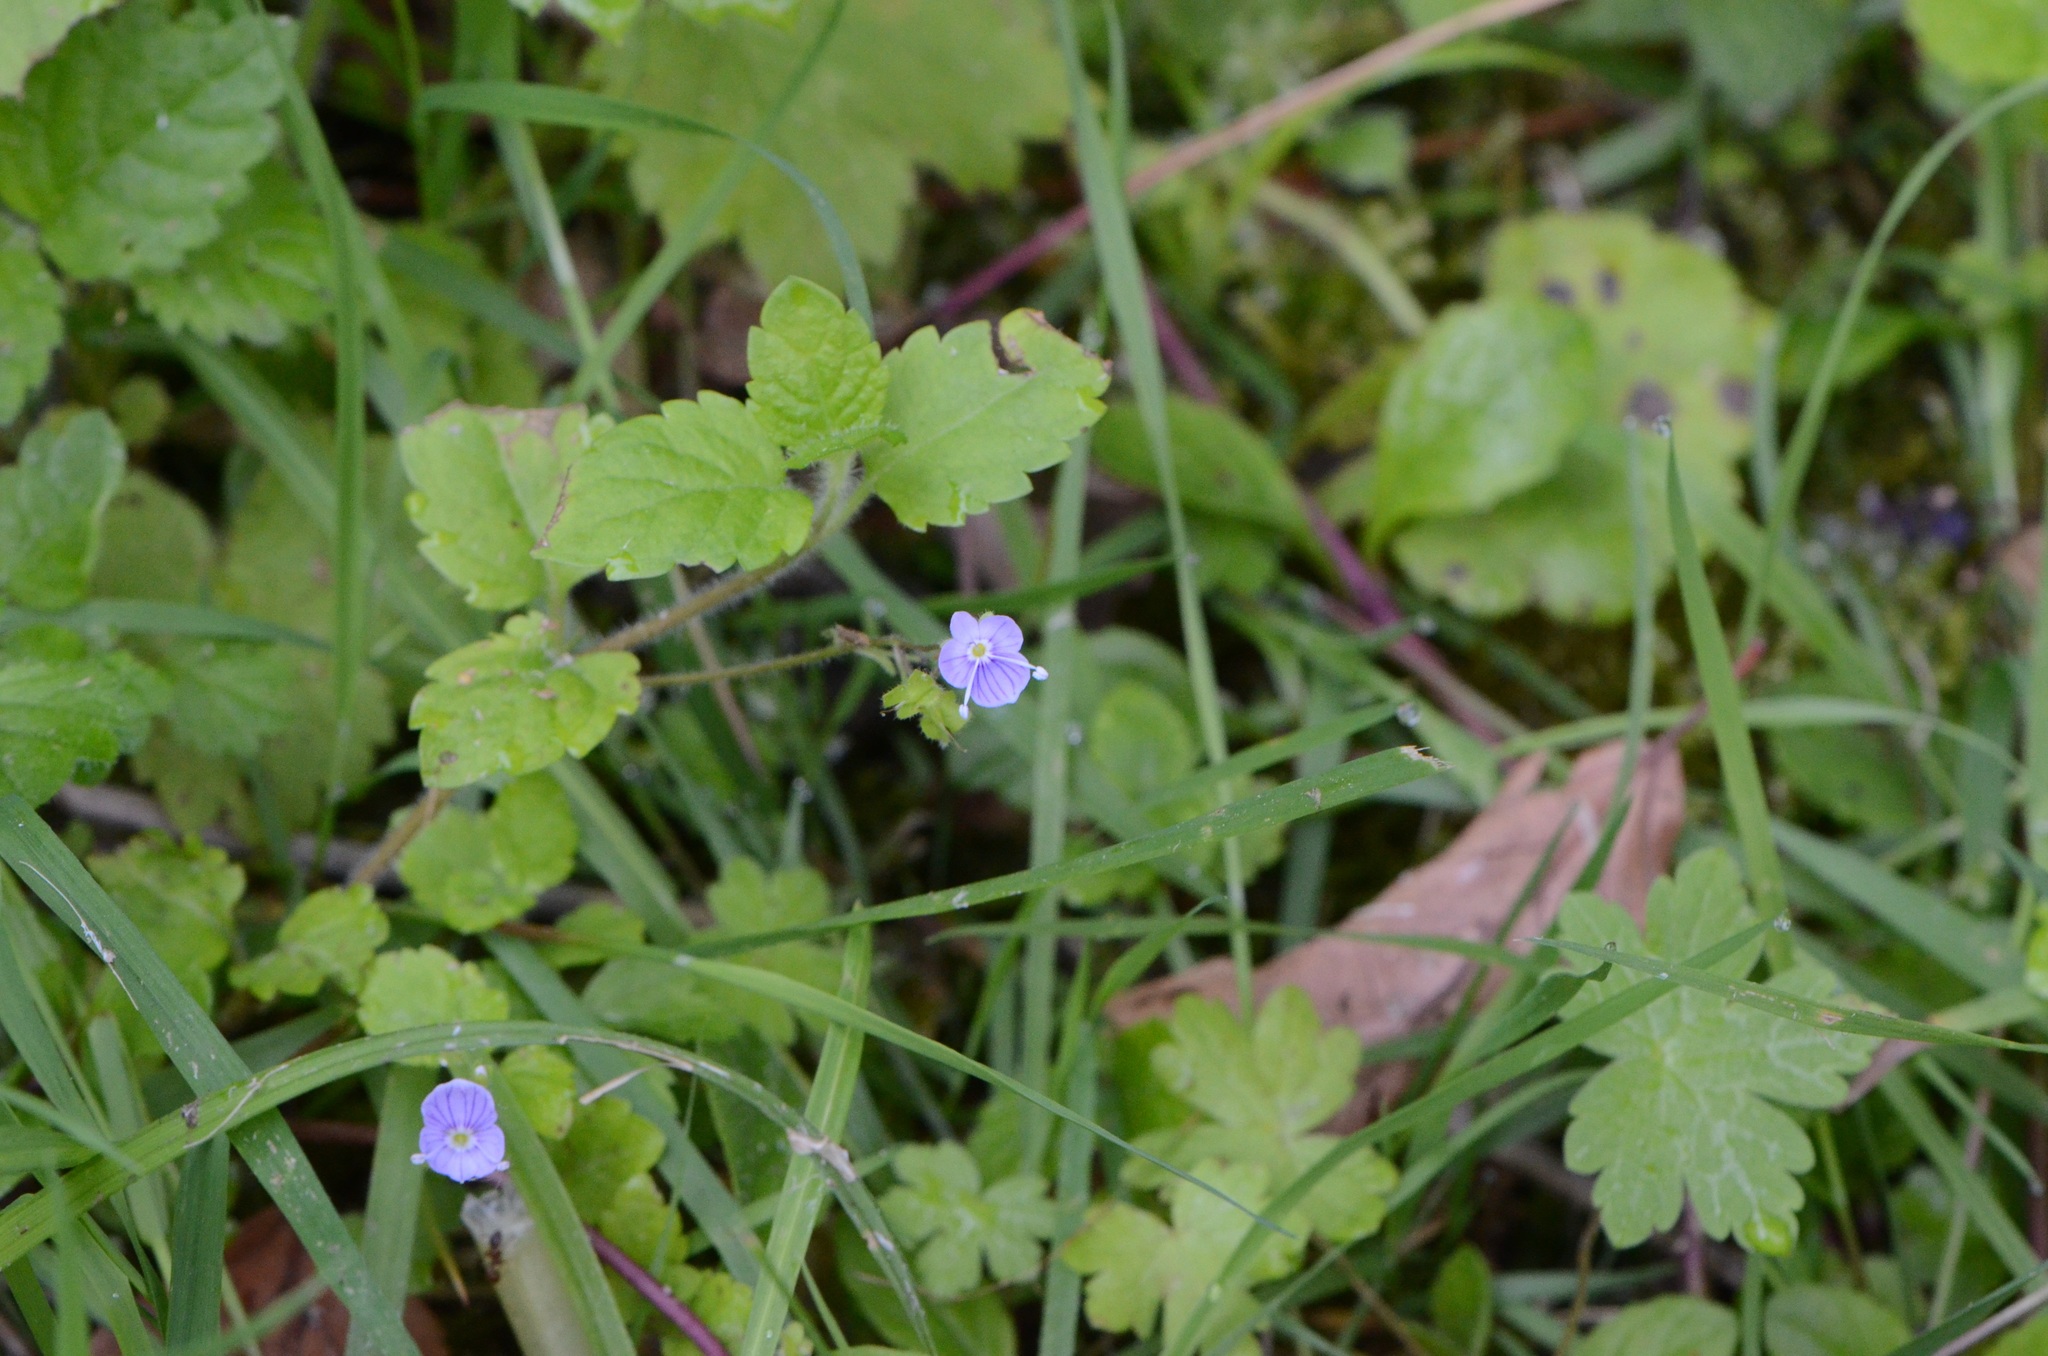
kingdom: Plantae
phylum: Tracheophyta
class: Magnoliopsida
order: Lamiales
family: Plantaginaceae
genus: Veronica
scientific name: Veronica montana
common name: Wood speedwell
